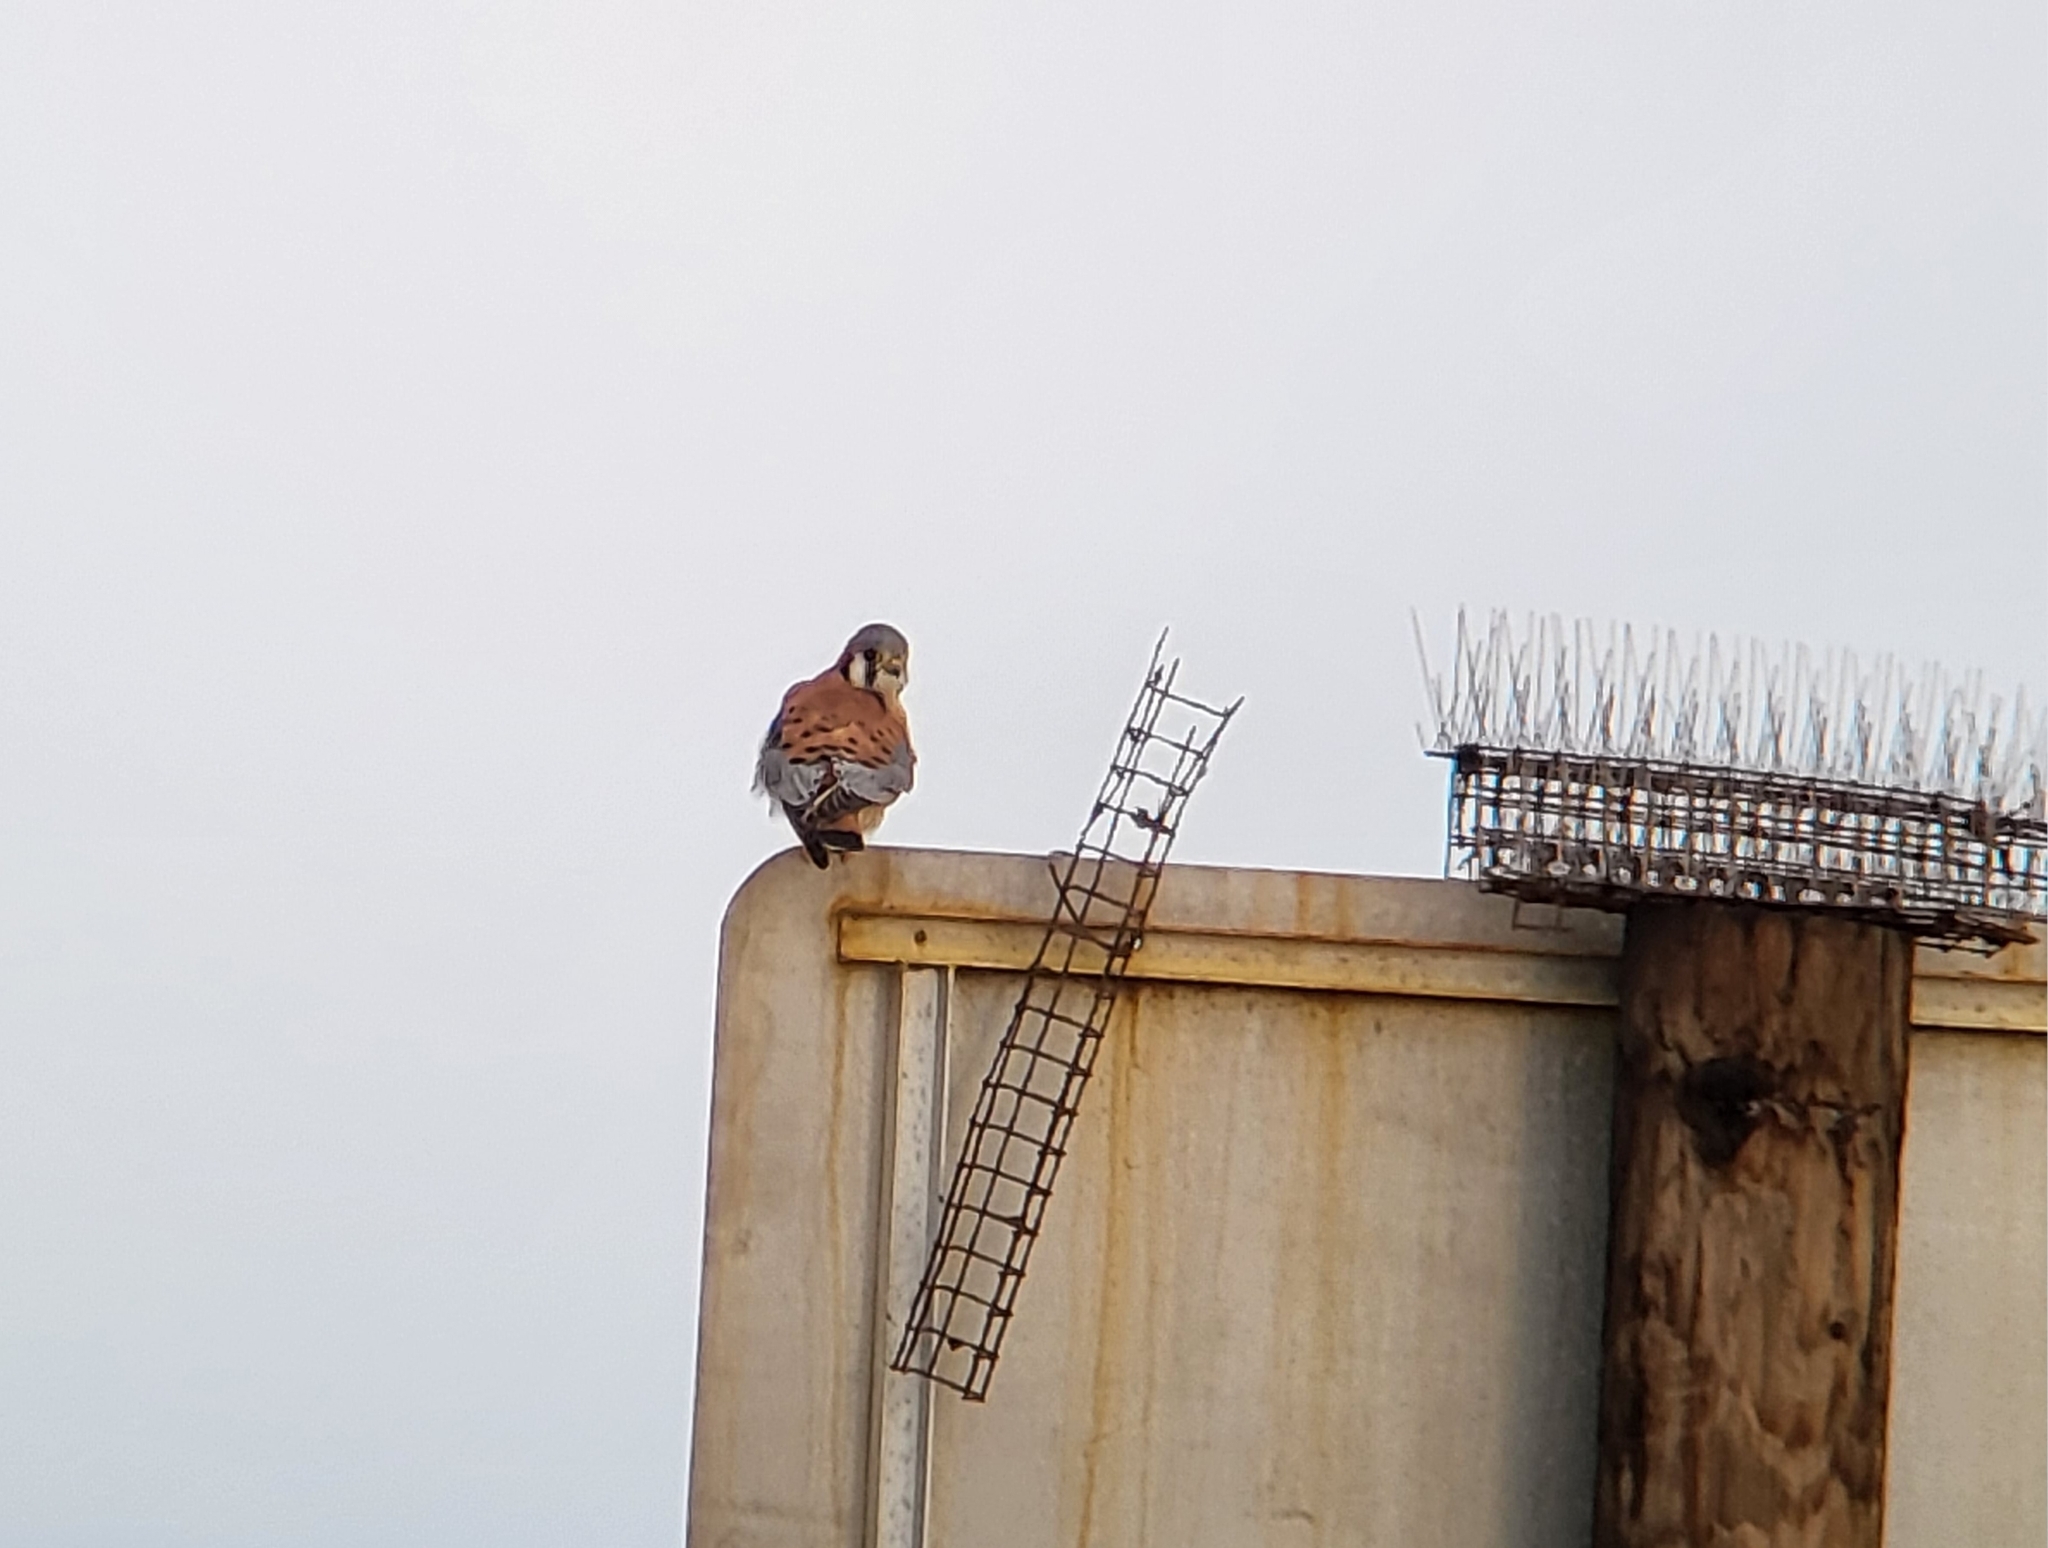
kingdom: Animalia
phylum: Chordata
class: Aves
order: Falconiformes
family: Falconidae
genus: Falco
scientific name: Falco sparverius
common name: American kestrel
